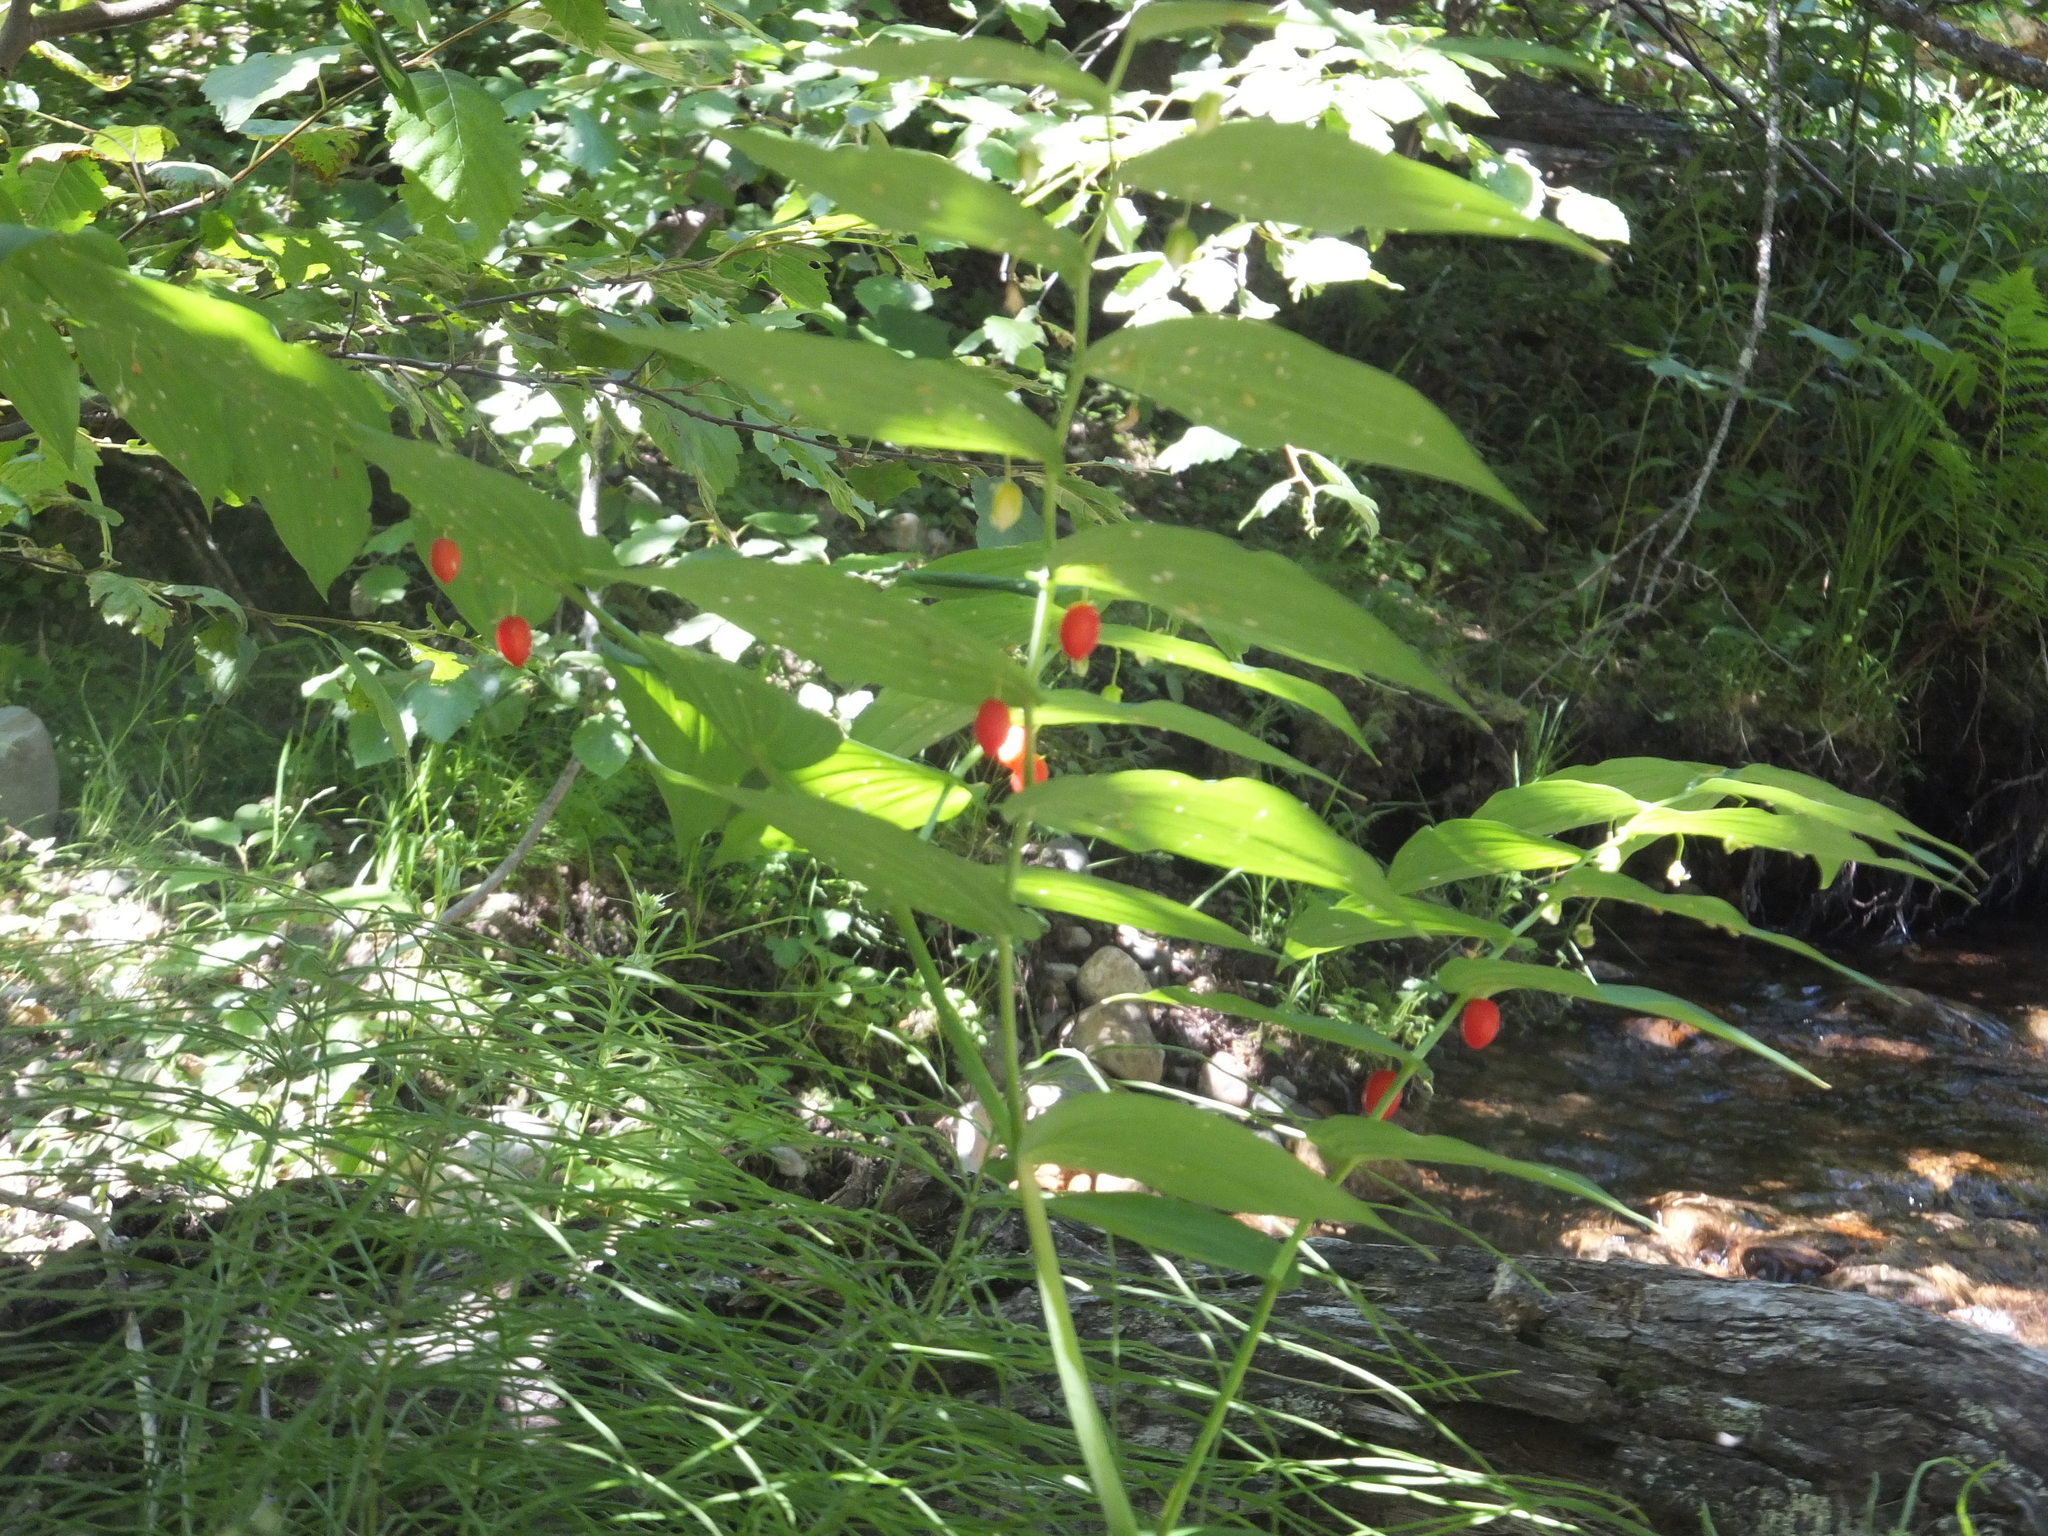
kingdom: Plantae
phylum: Tracheophyta
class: Liliopsida
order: Liliales
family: Liliaceae
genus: Streptopus
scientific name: Streptopus amplexifolius
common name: Clasp twisted stalk
